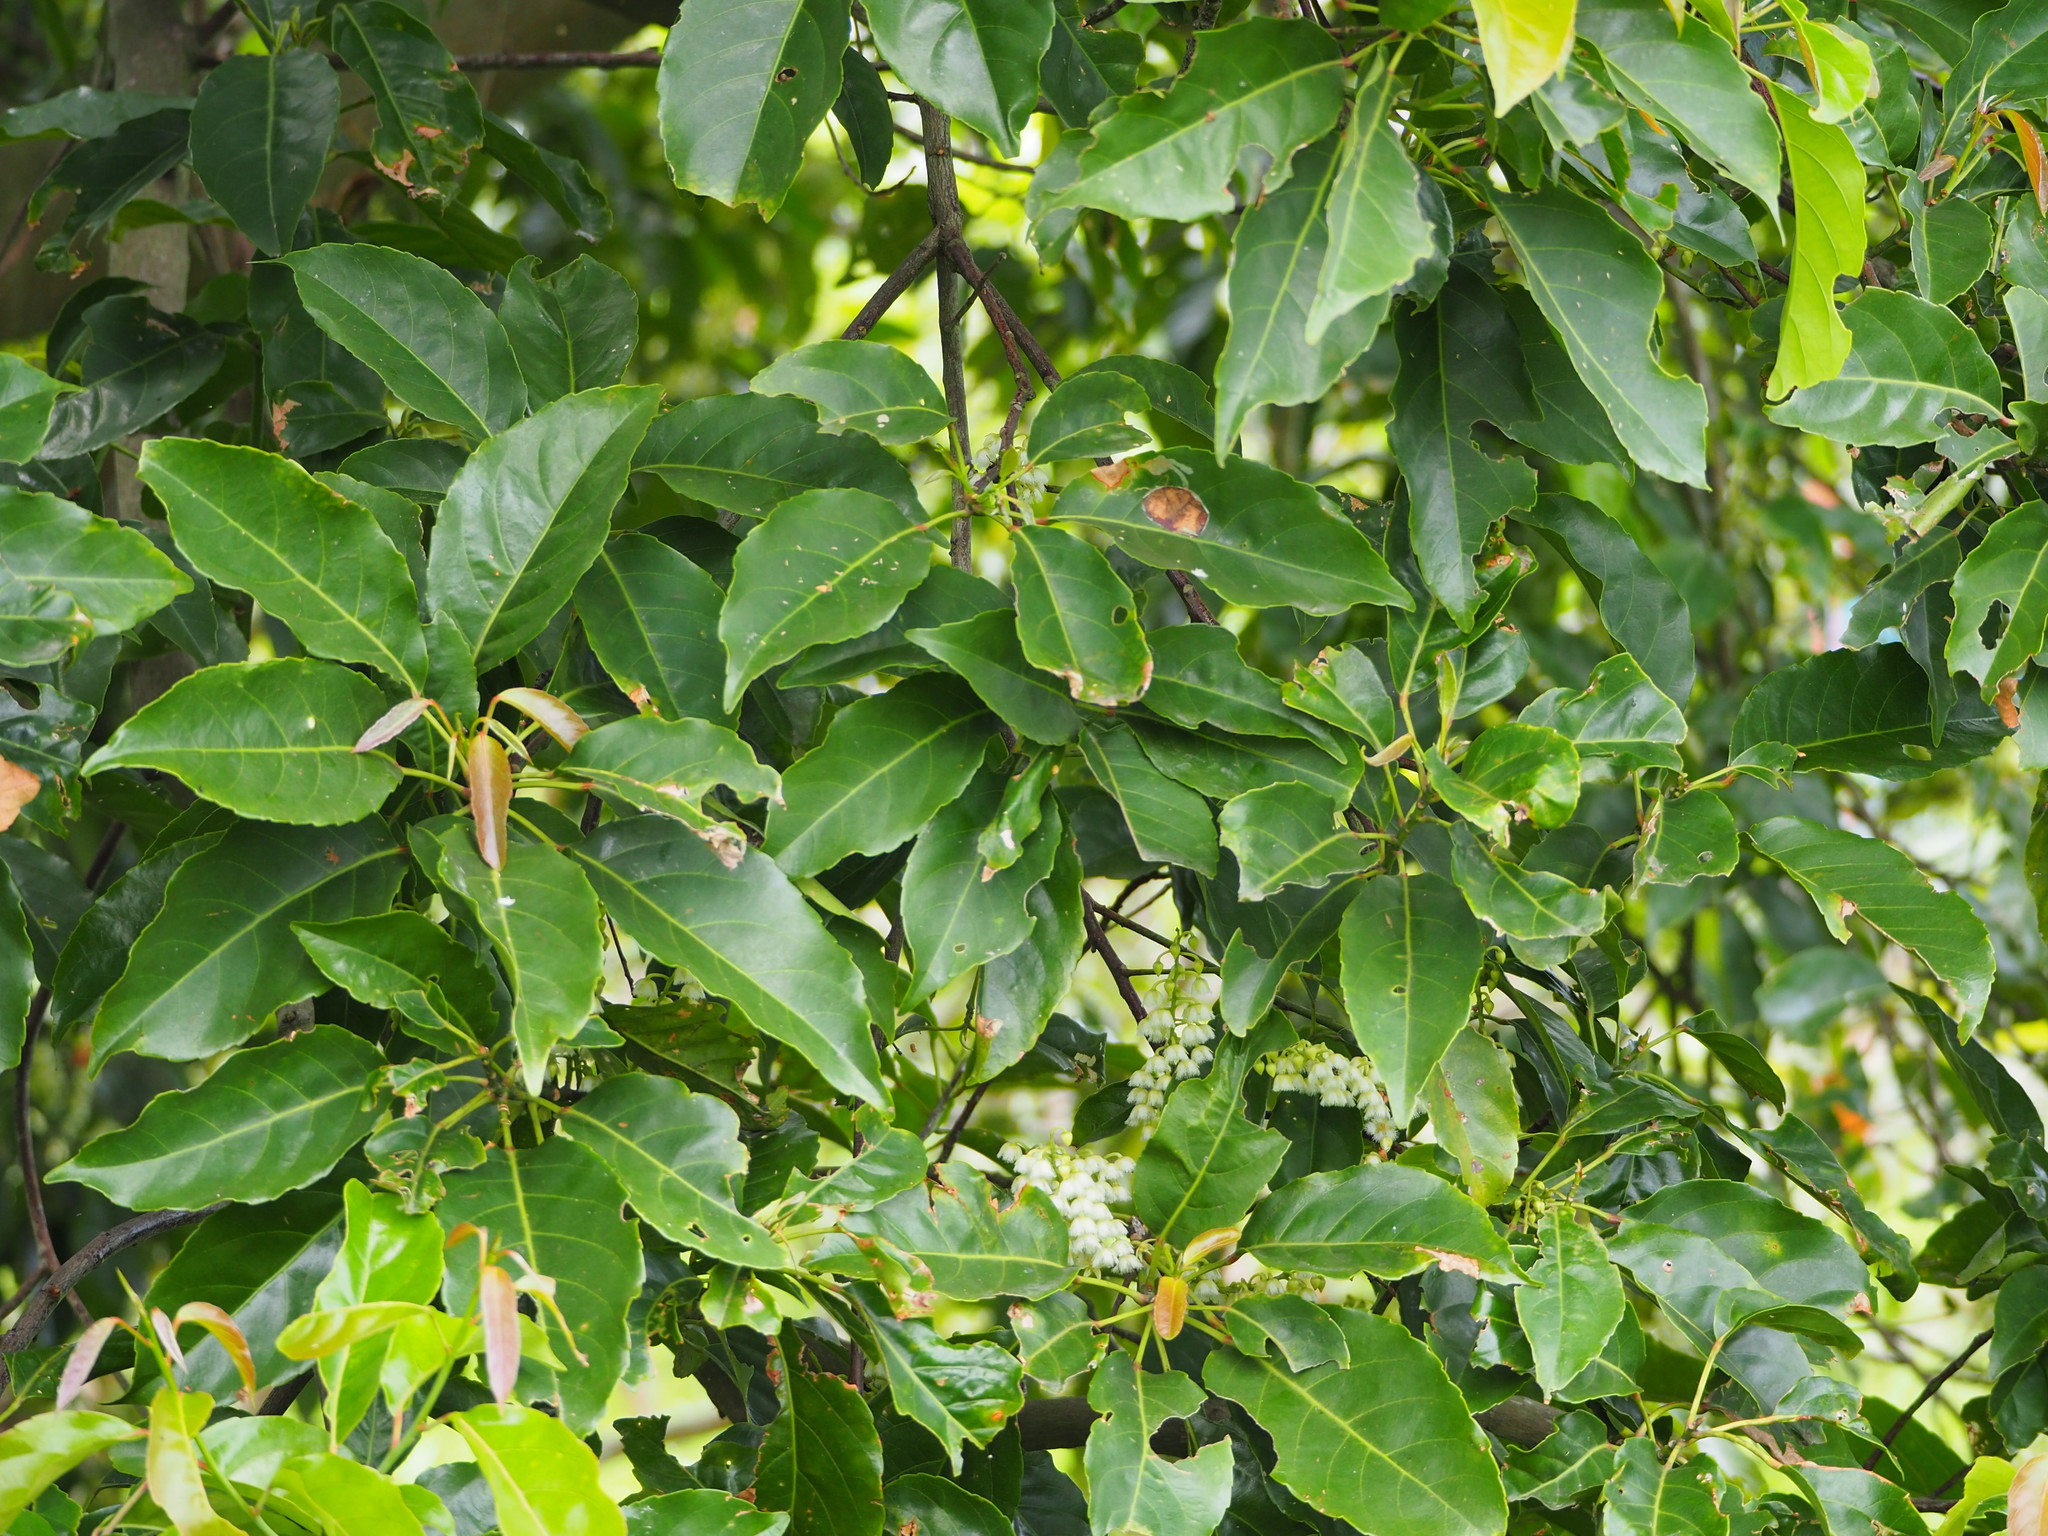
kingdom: Plantae
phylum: Tracheophyta
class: Magnoliopsida
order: Oxalidales
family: Elaeocarpaceae
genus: Elaeocarpus
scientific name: Elaeocarpus serratus
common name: Ceylon-olive
